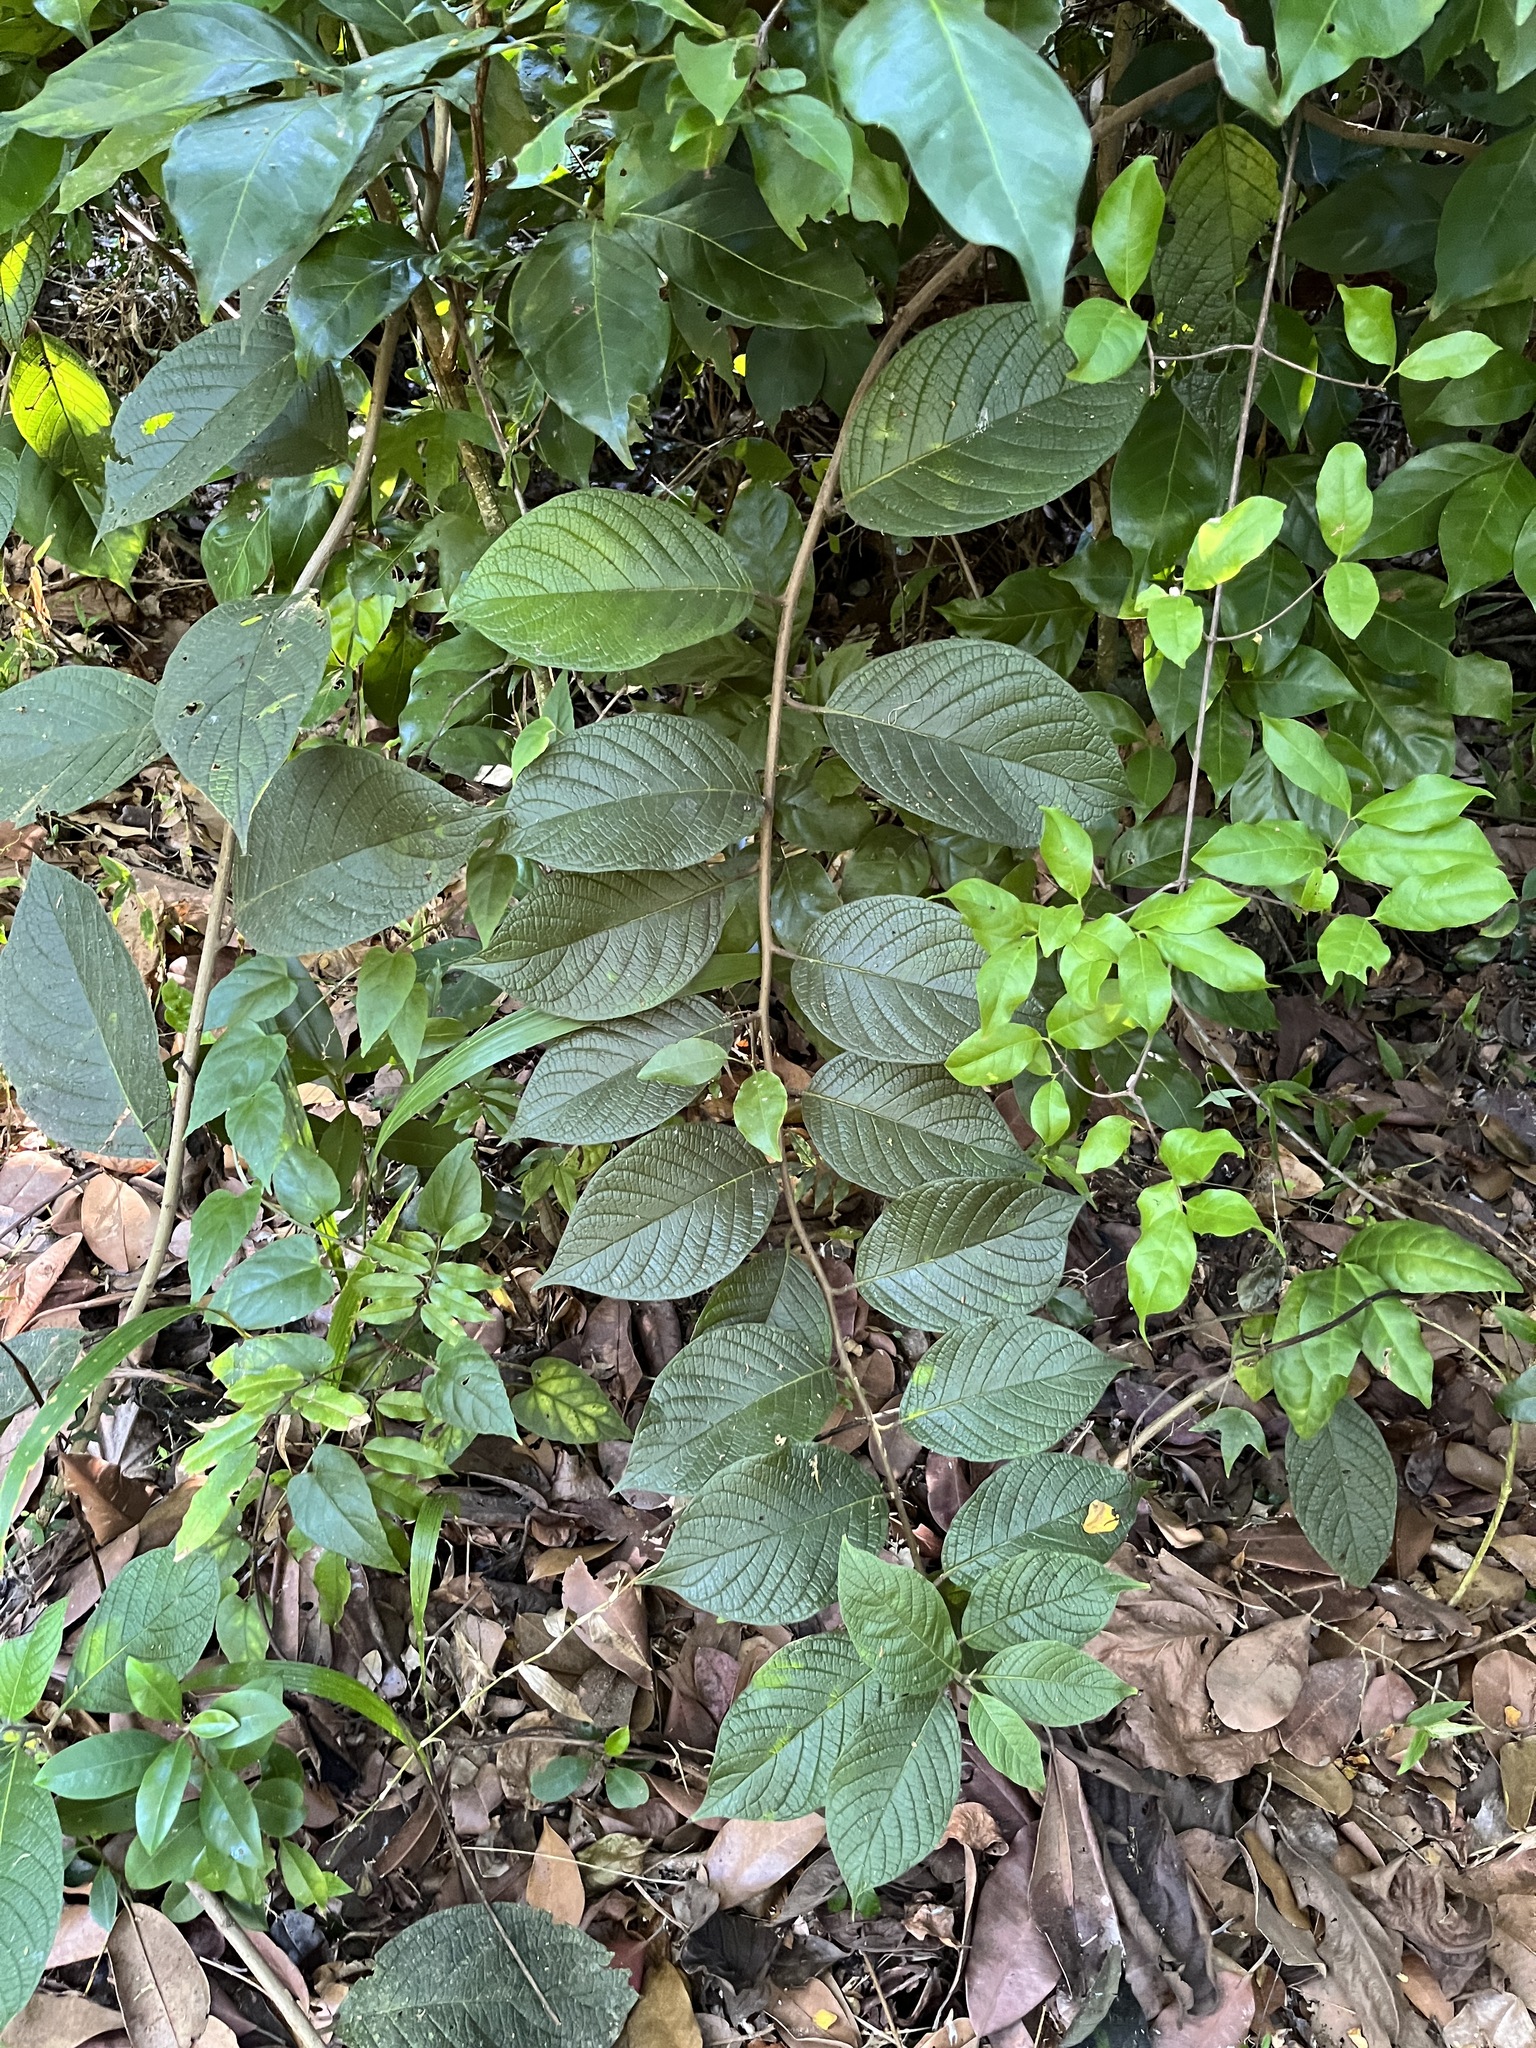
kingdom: Plantae
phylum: Tracheophyta
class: Magnoliopsida
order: Boraginales
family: Heliotropiaceae
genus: Heliotropium
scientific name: Heliotropium verdcourtii
